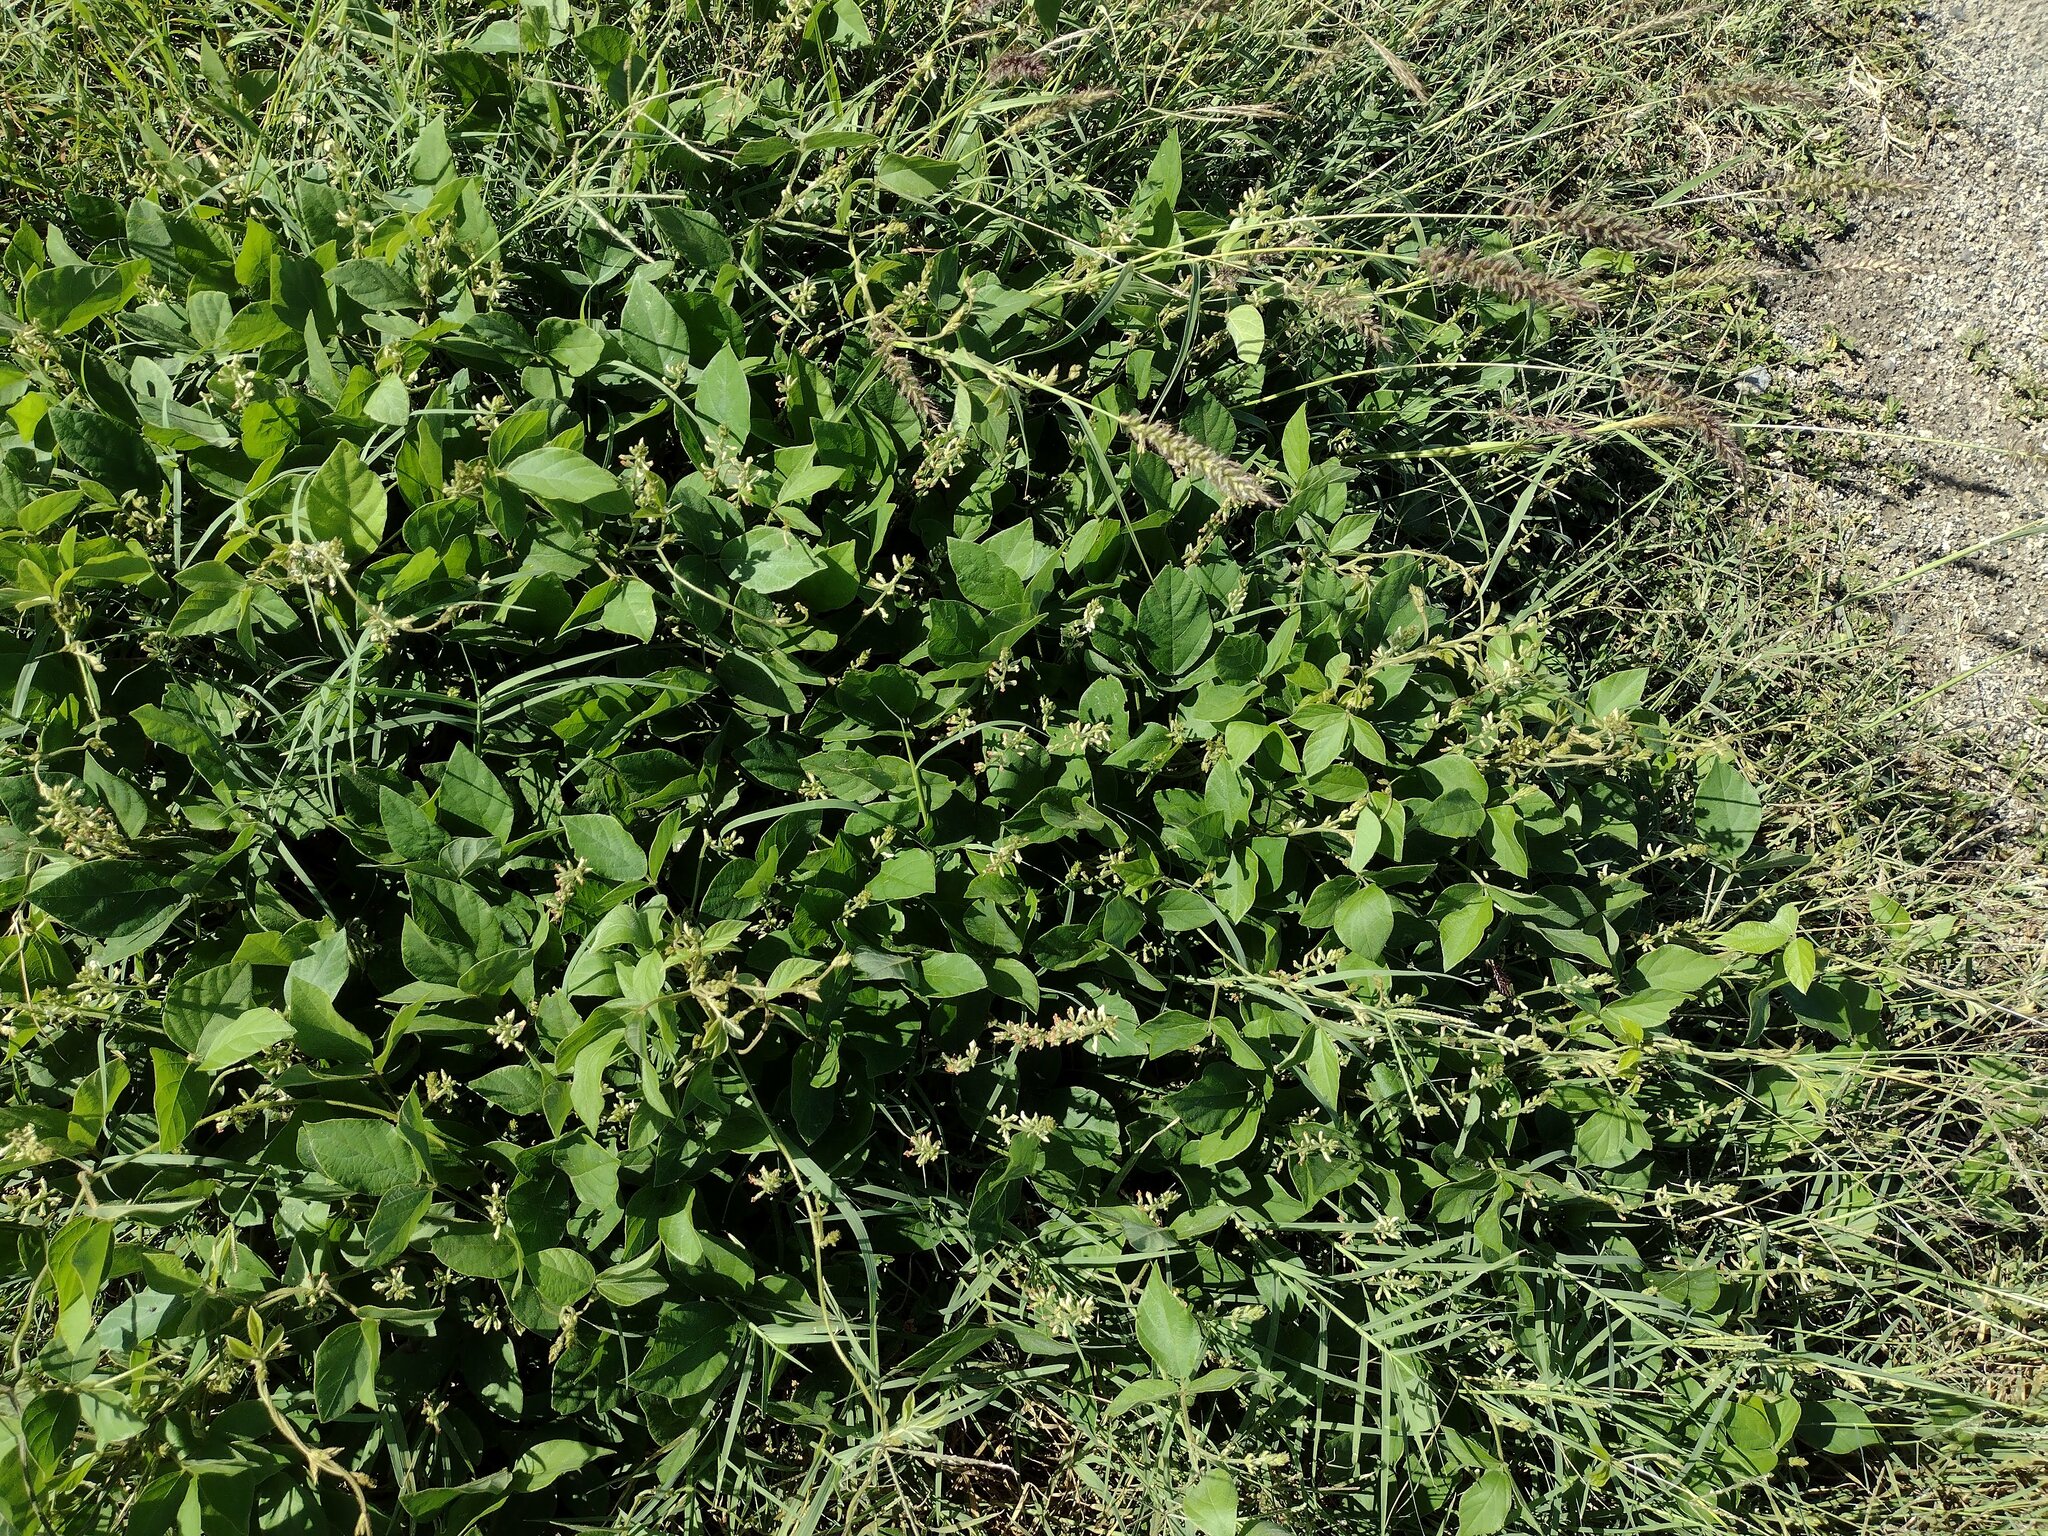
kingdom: Plantae
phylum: Tracheophyta
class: Magnoliopsida
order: Fabales
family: Fabaceae
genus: Neonotonia
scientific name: Neonotonia wightii
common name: Perennial soybean
